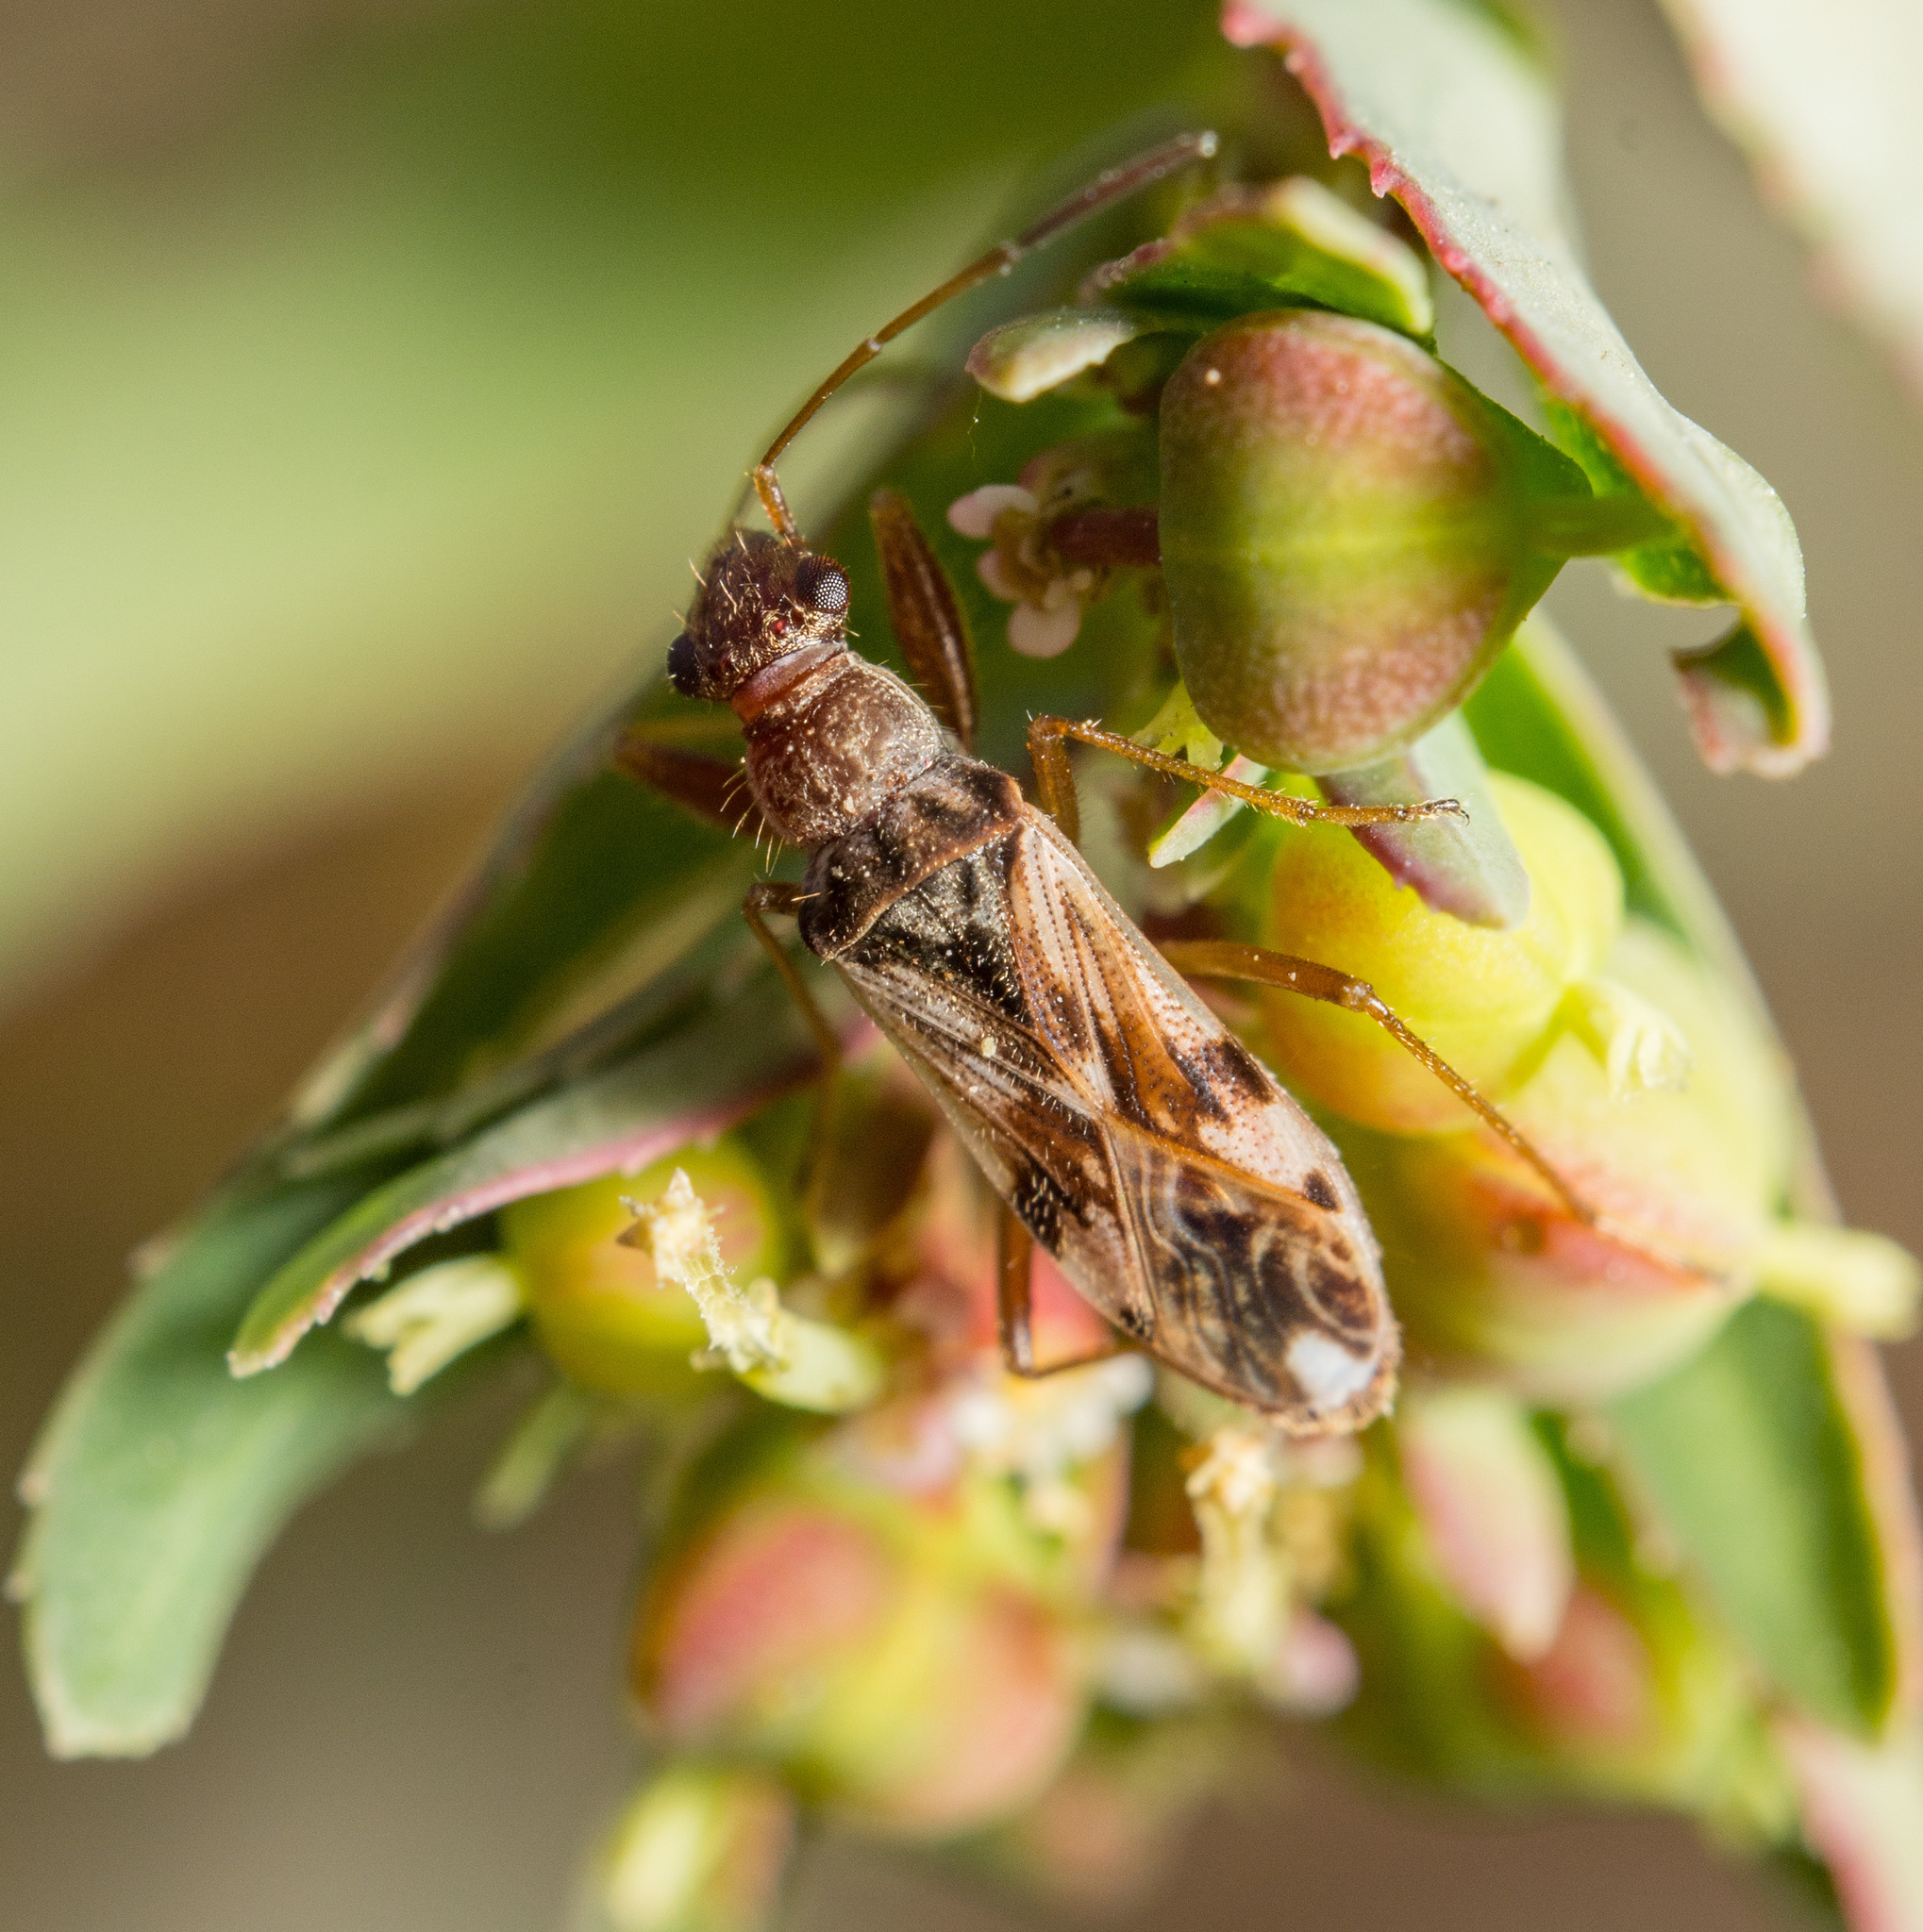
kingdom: Animalia
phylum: Arthropoda
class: Insecta
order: Hemiptera
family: Rhyparochromidae
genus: Neopamera
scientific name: Neopamera bilobata
